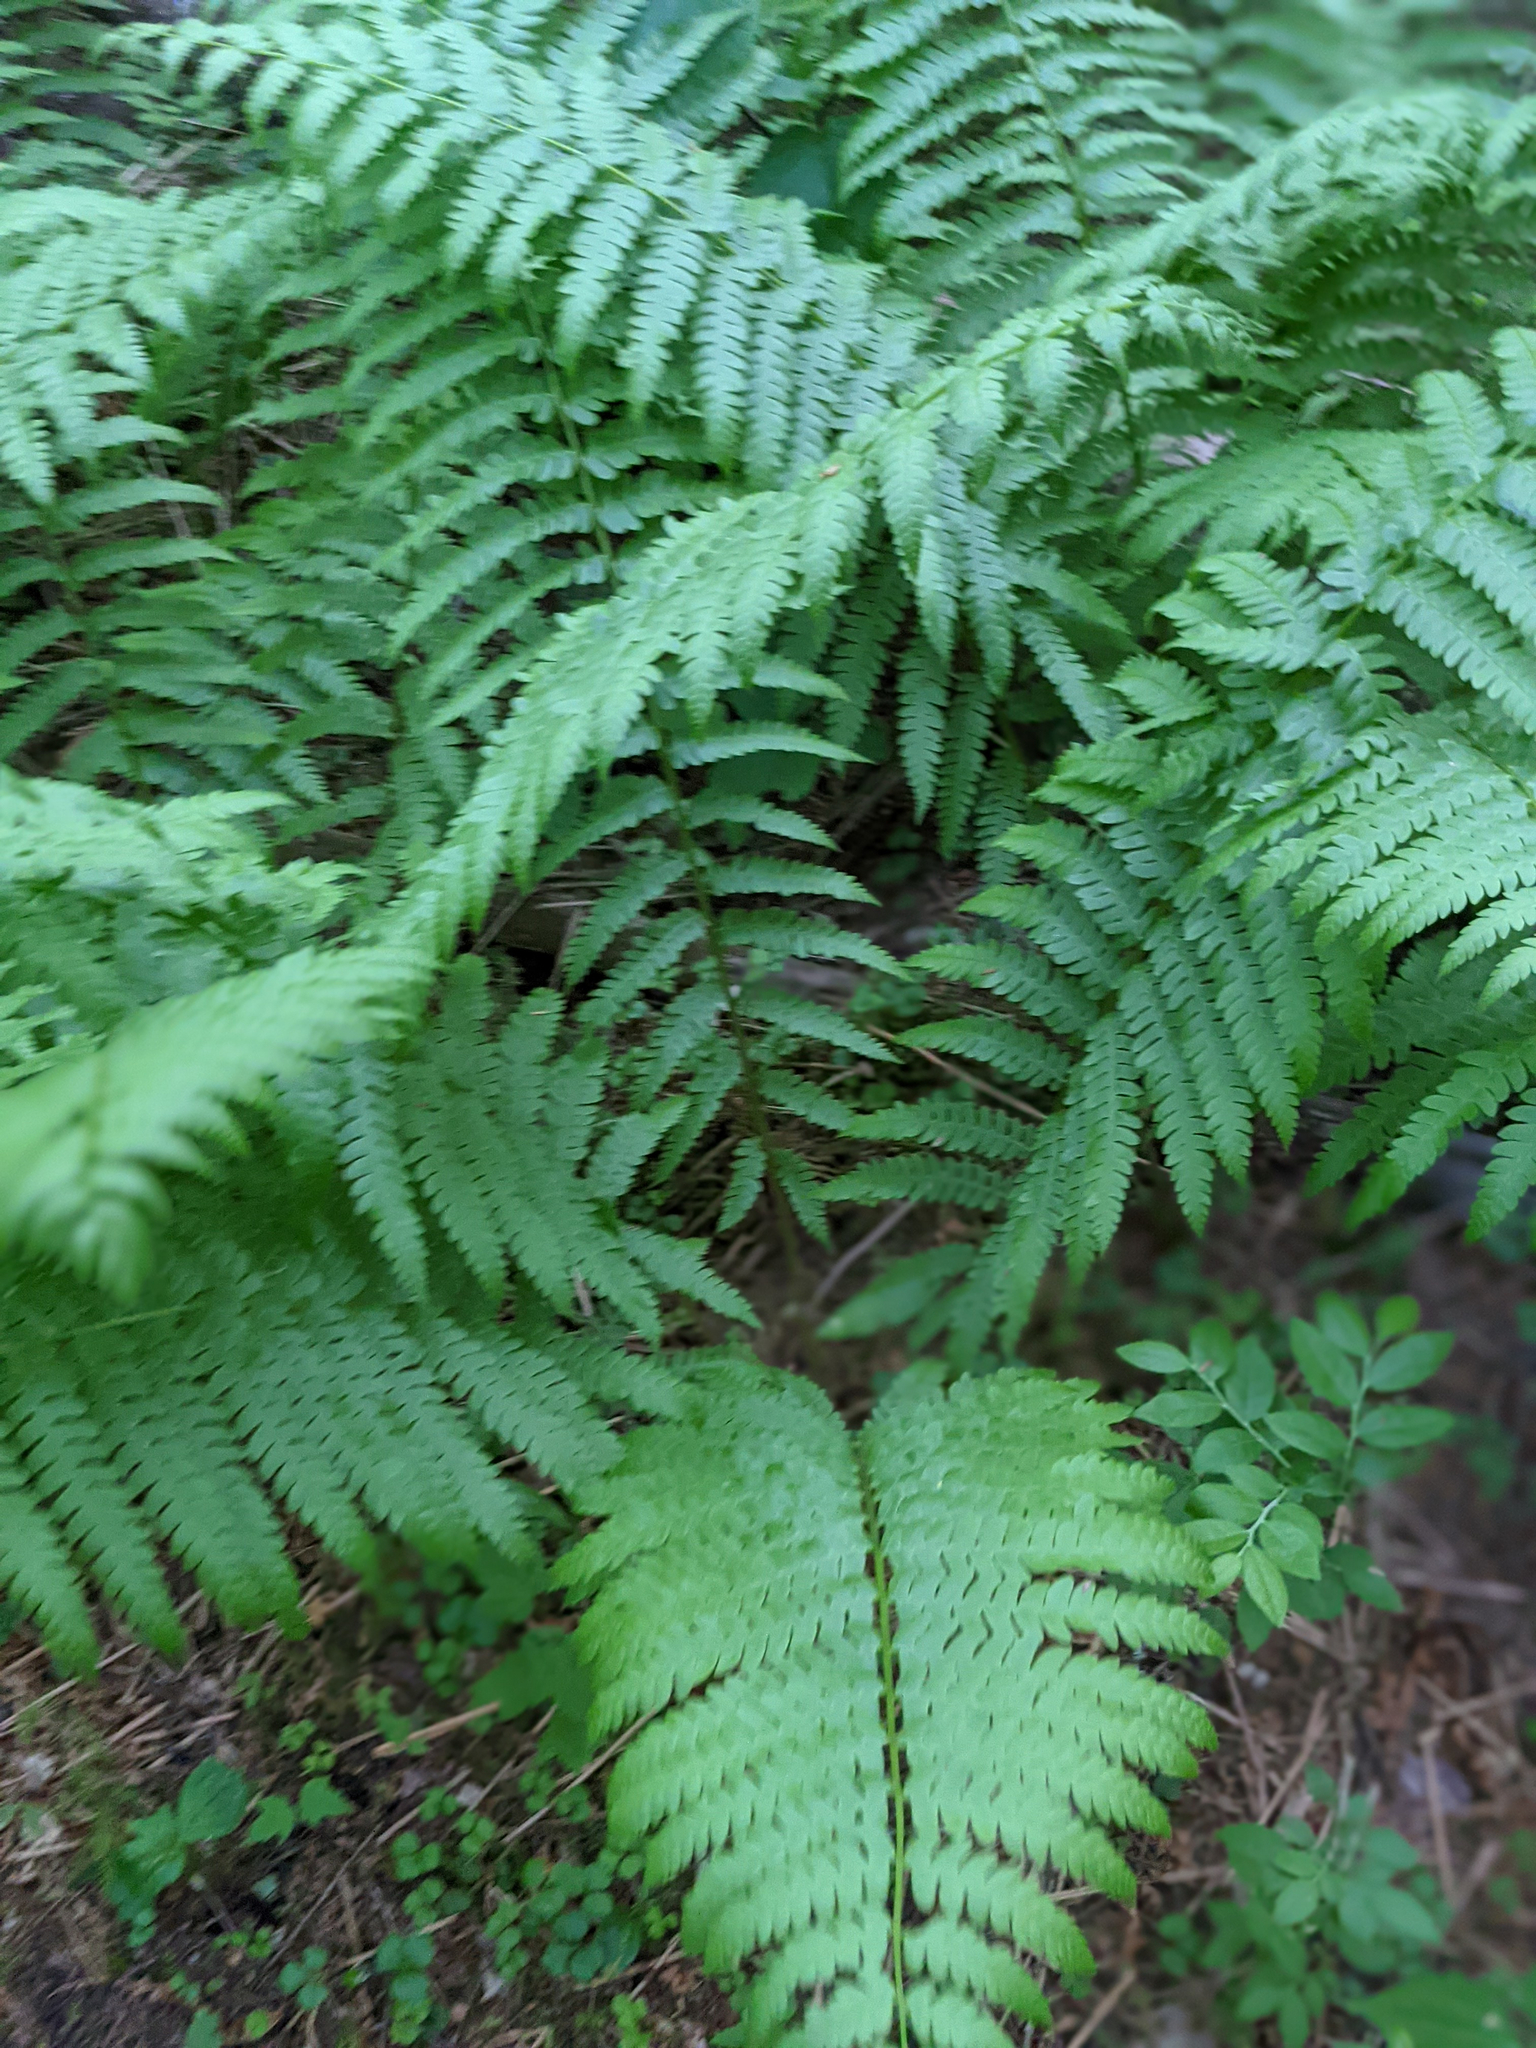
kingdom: Plantae
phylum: Tracheophyta
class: Polypodiopsida
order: Osmundales
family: Osmundaceae
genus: Osmundastrum
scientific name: Osmundastrum cinnamomeum
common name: Cinnamon fern
